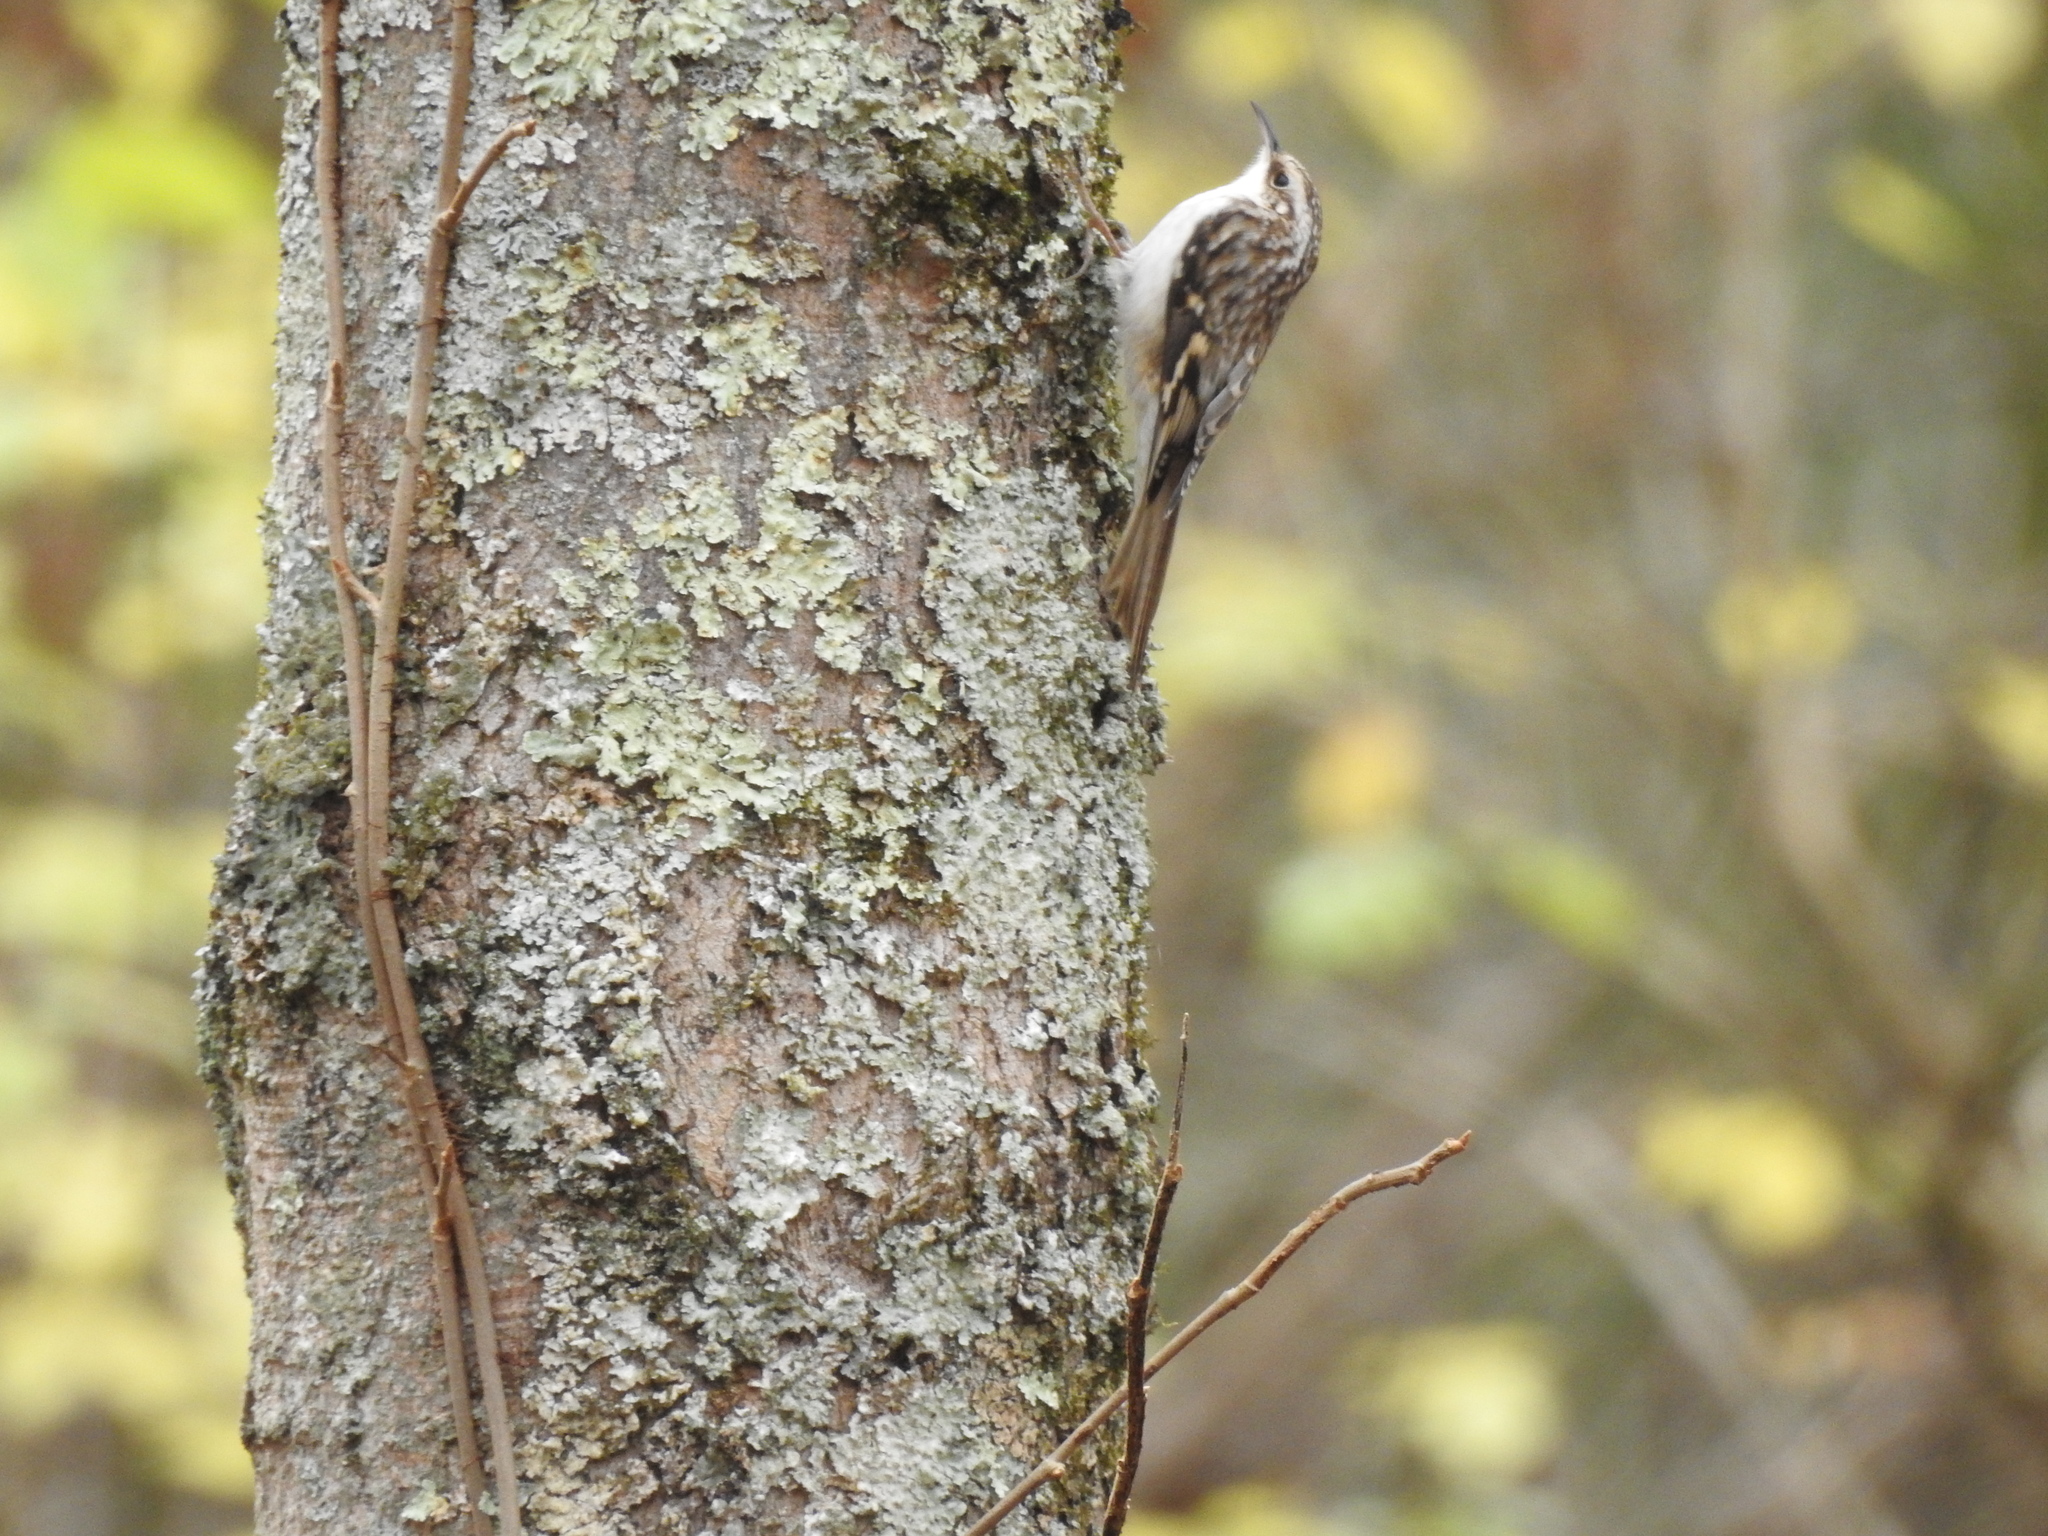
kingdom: Animalia
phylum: Chordata
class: Aves
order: Passeriformes
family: Certhiidae
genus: Certhia
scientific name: Certhia americana
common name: Brown creeper
